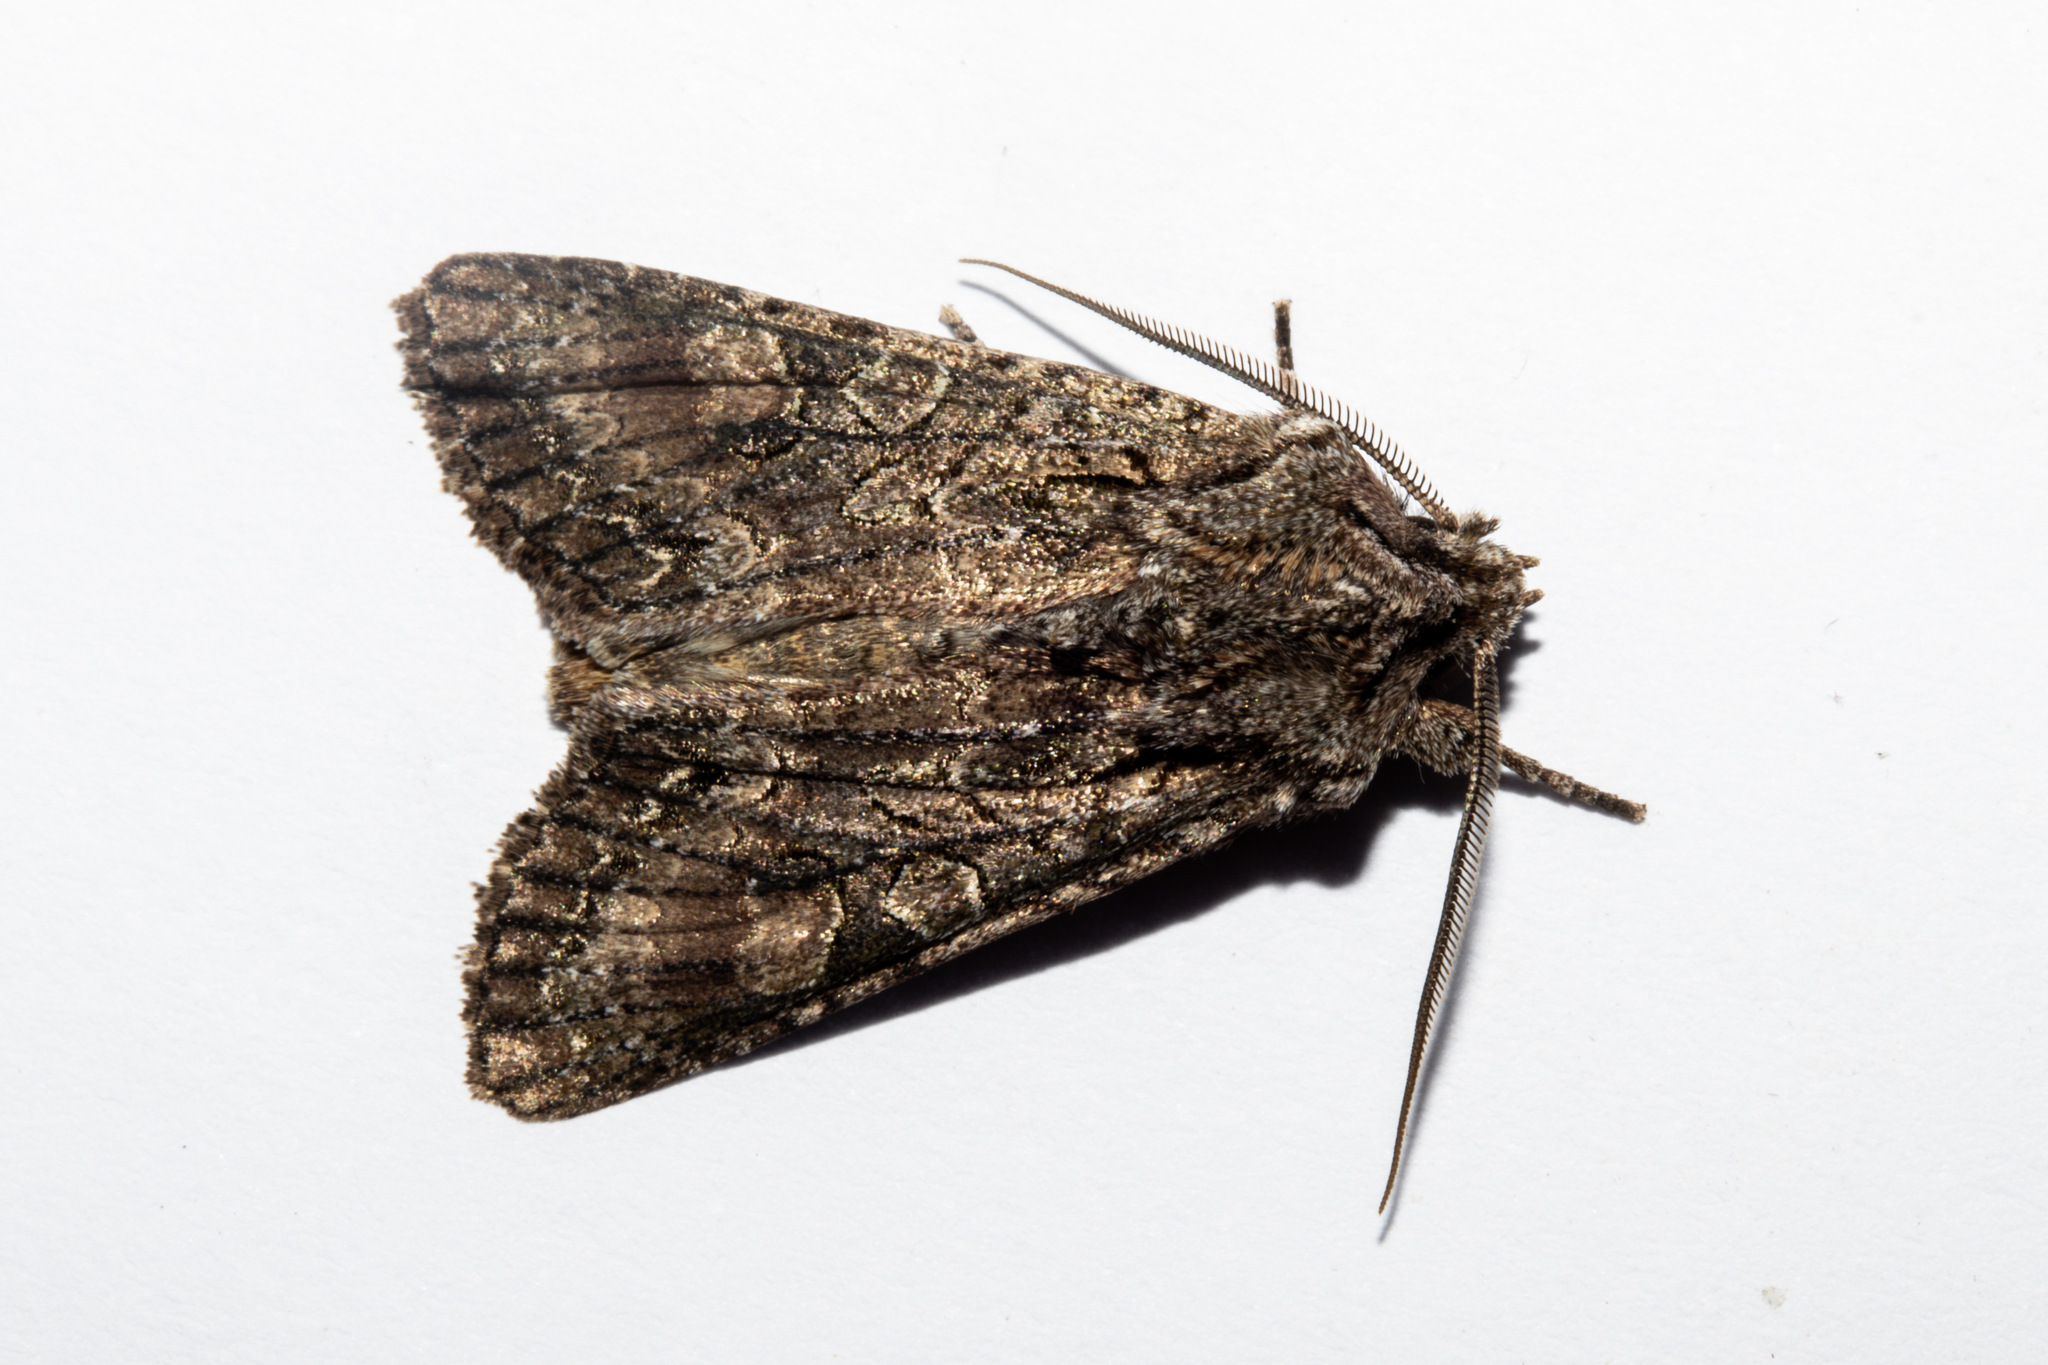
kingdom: Animalia
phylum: Arthropoda
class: Insecta
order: Lepidoptera
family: Noctuidae
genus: Ichneutica
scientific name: Ichneutica mutans
